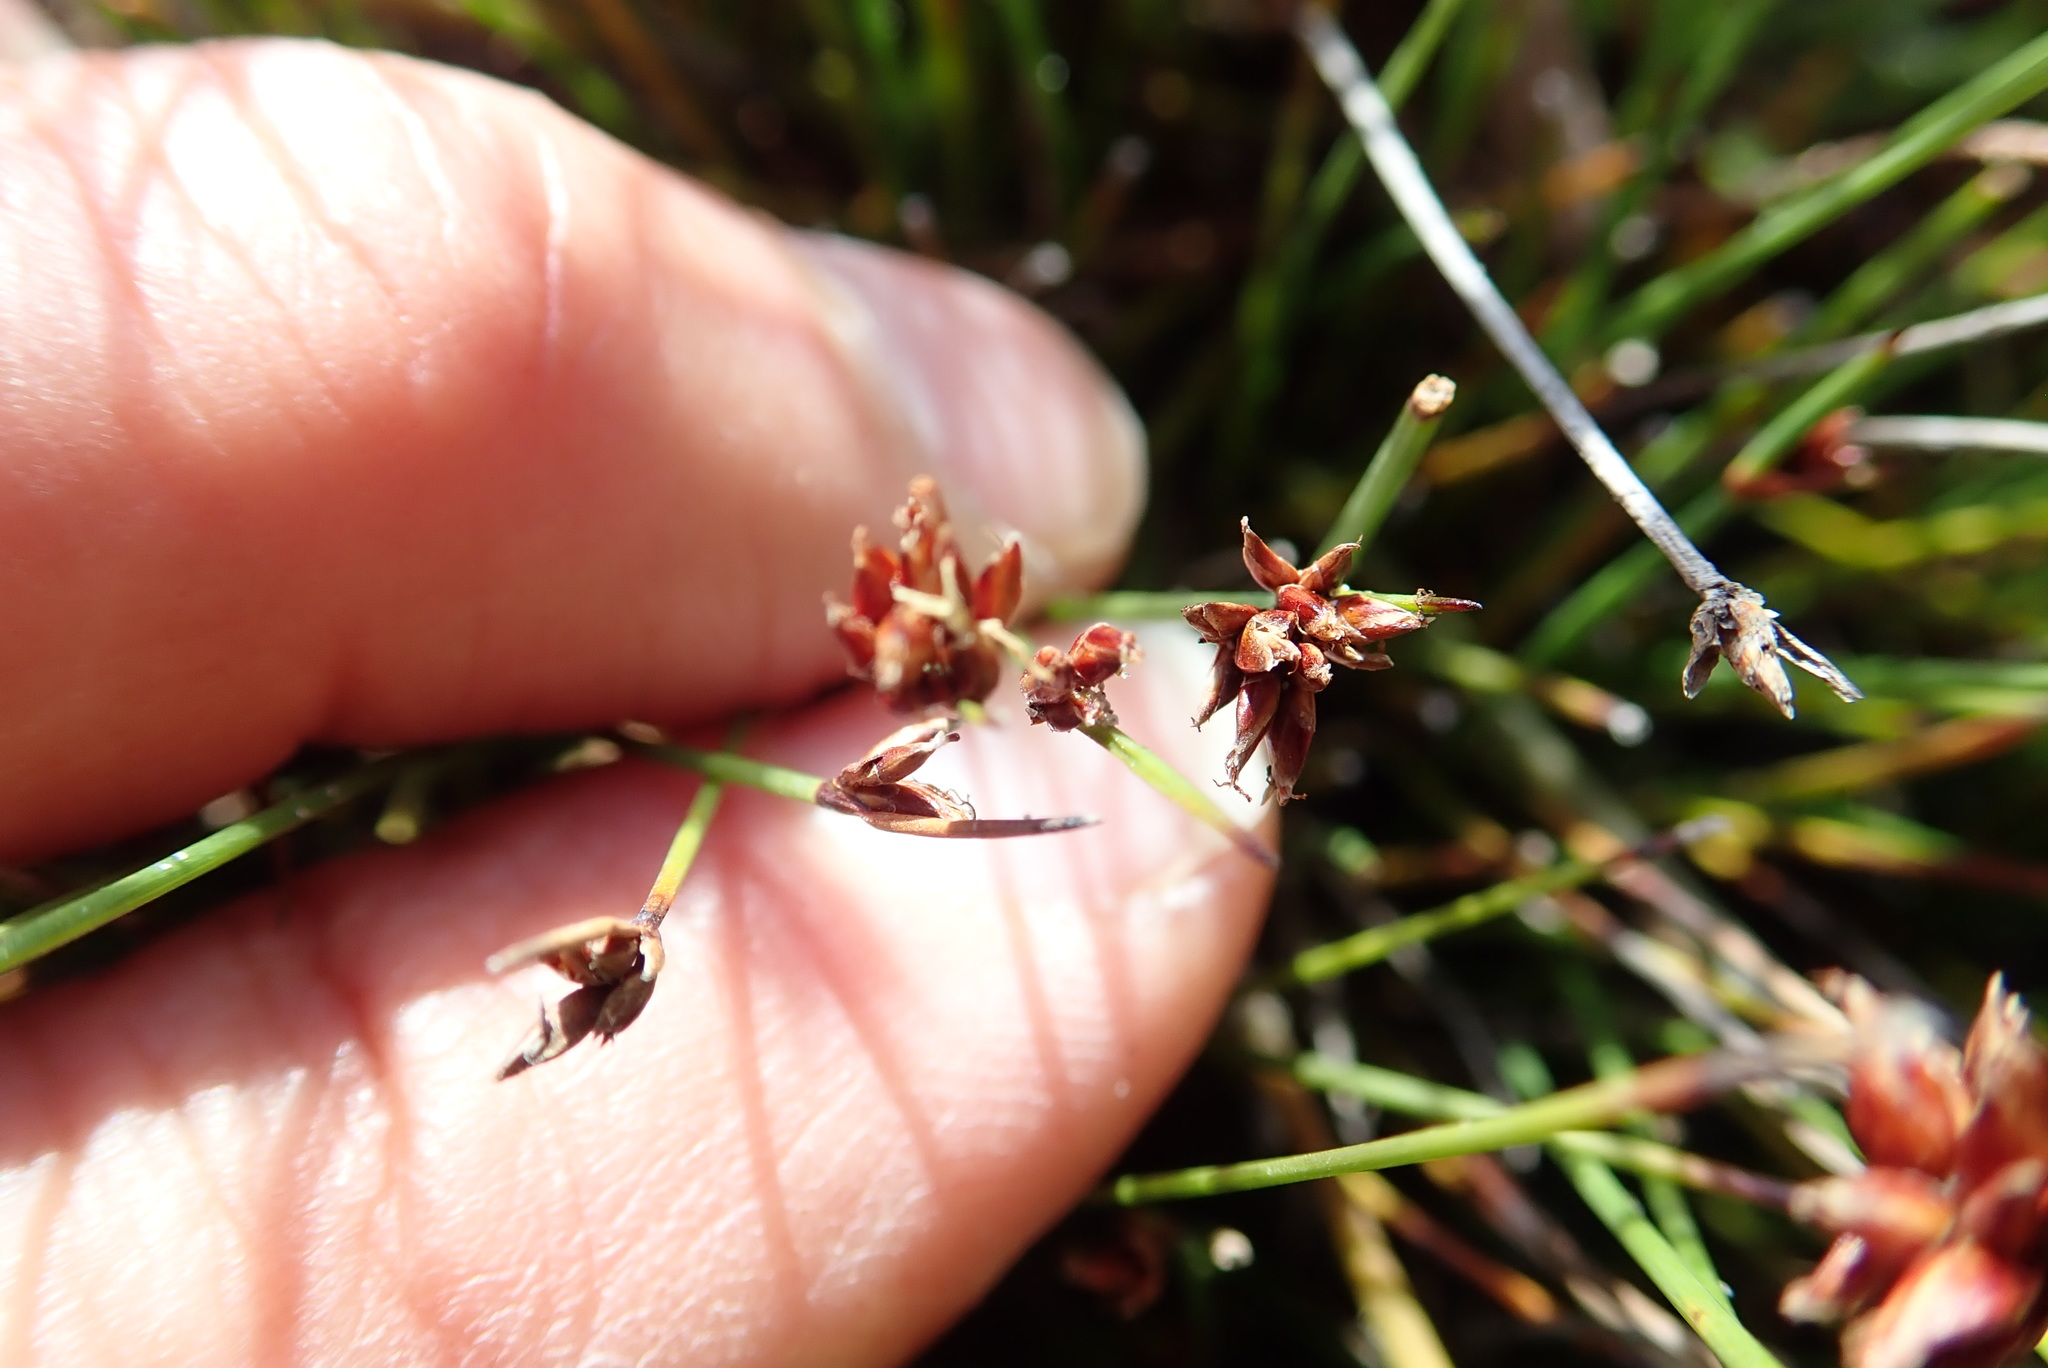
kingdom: Plantae
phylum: Tracheophyta
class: Liliopsida
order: Poales
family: Cyperaceae
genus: Schoenus
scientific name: Schoenus nitens
